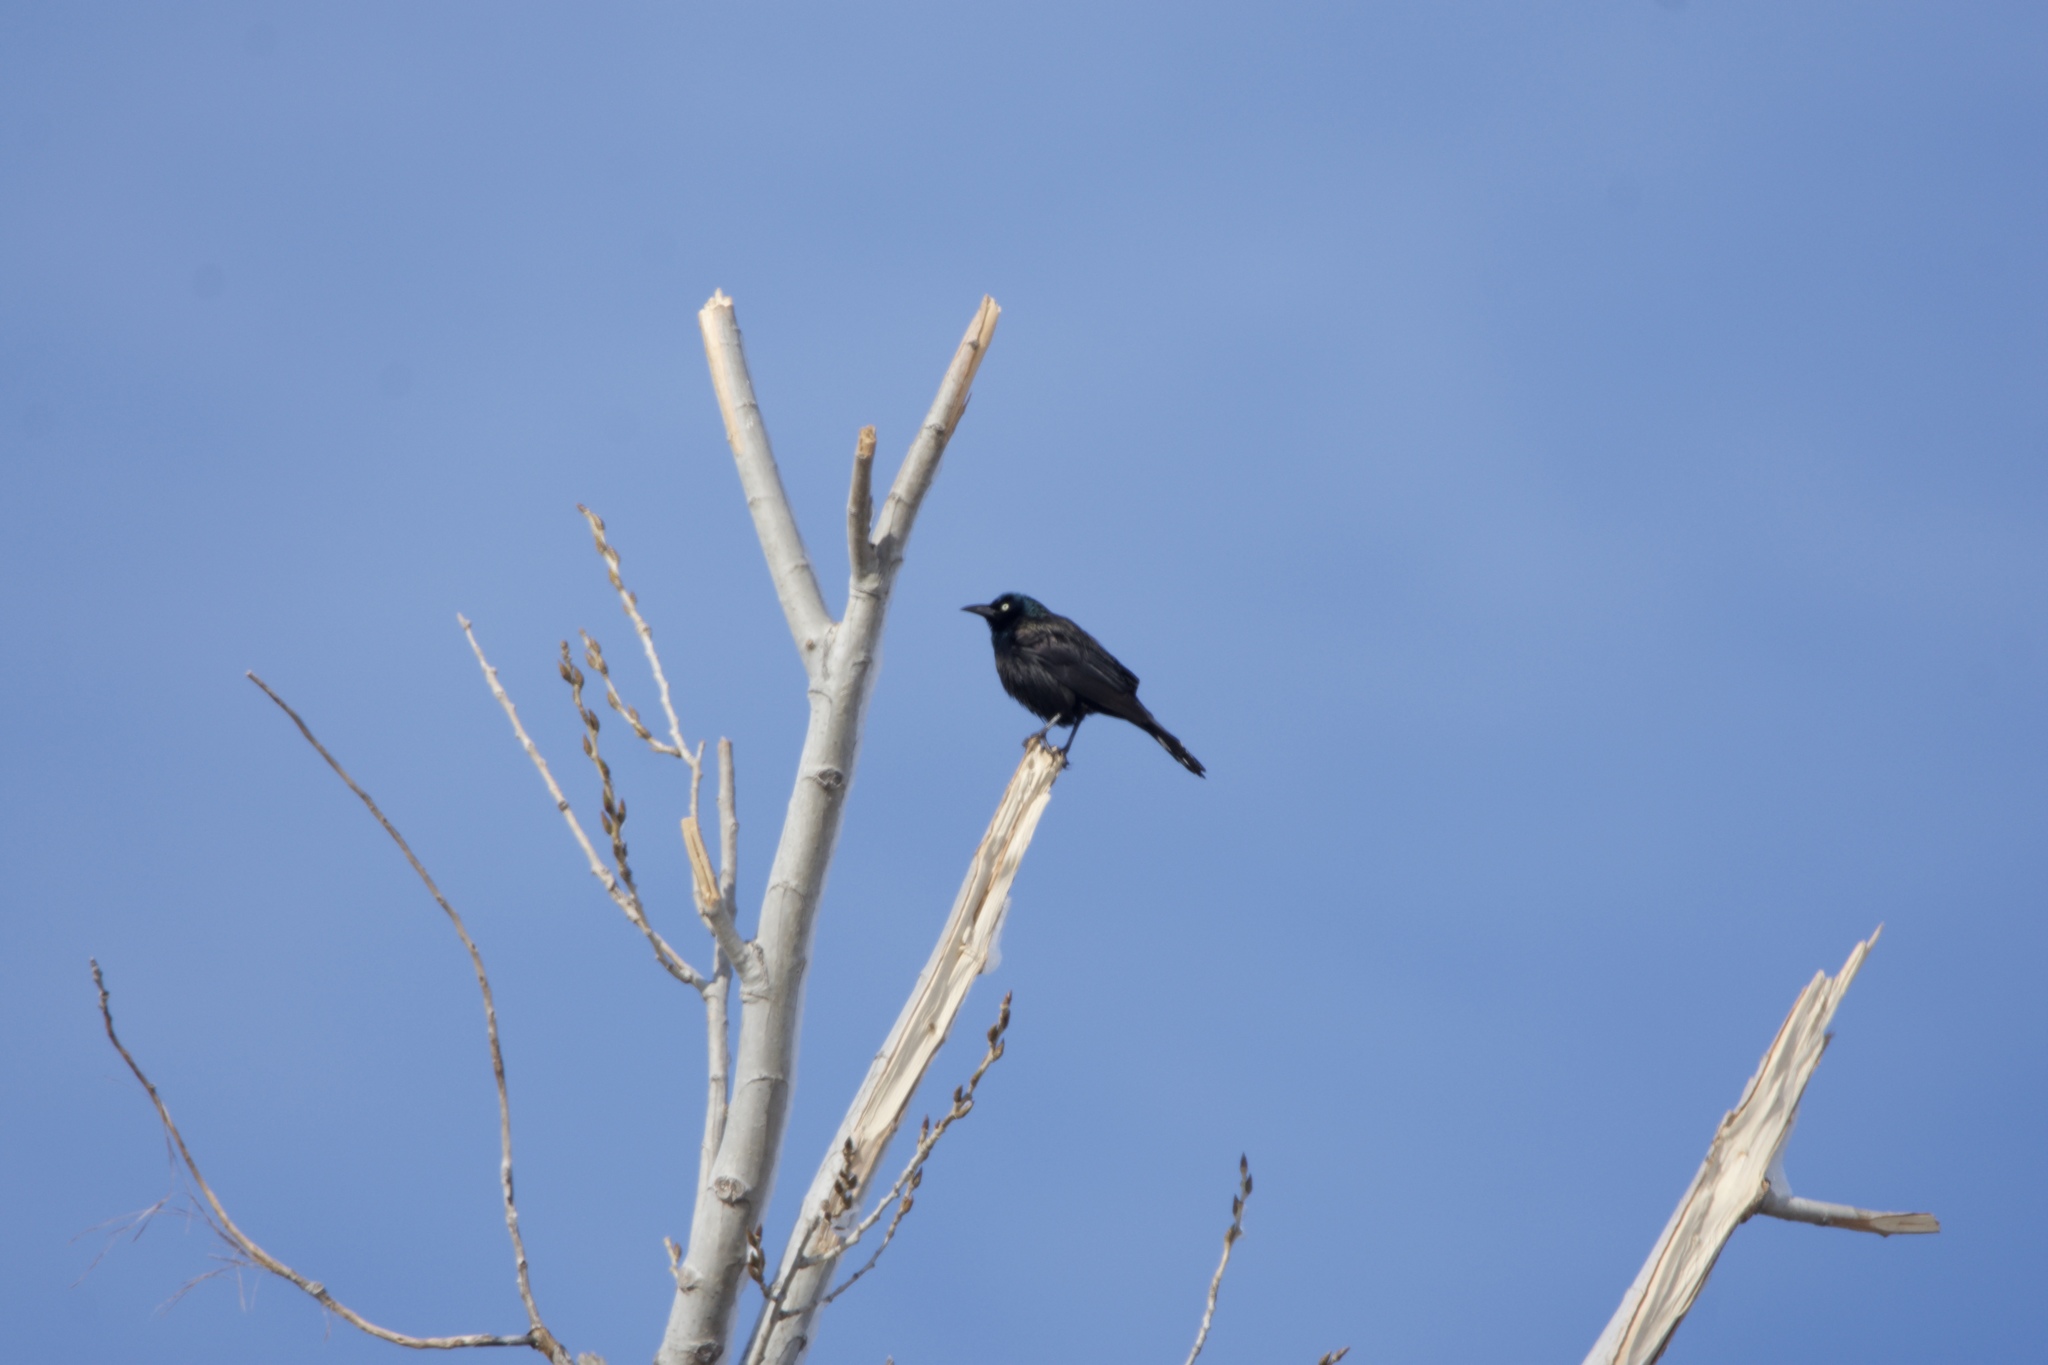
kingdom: Animalia
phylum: Chordata
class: Aves
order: Passeriformes
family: Icteridae
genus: Quiscalus
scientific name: Quiscalus quiscula
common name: Common grackle
